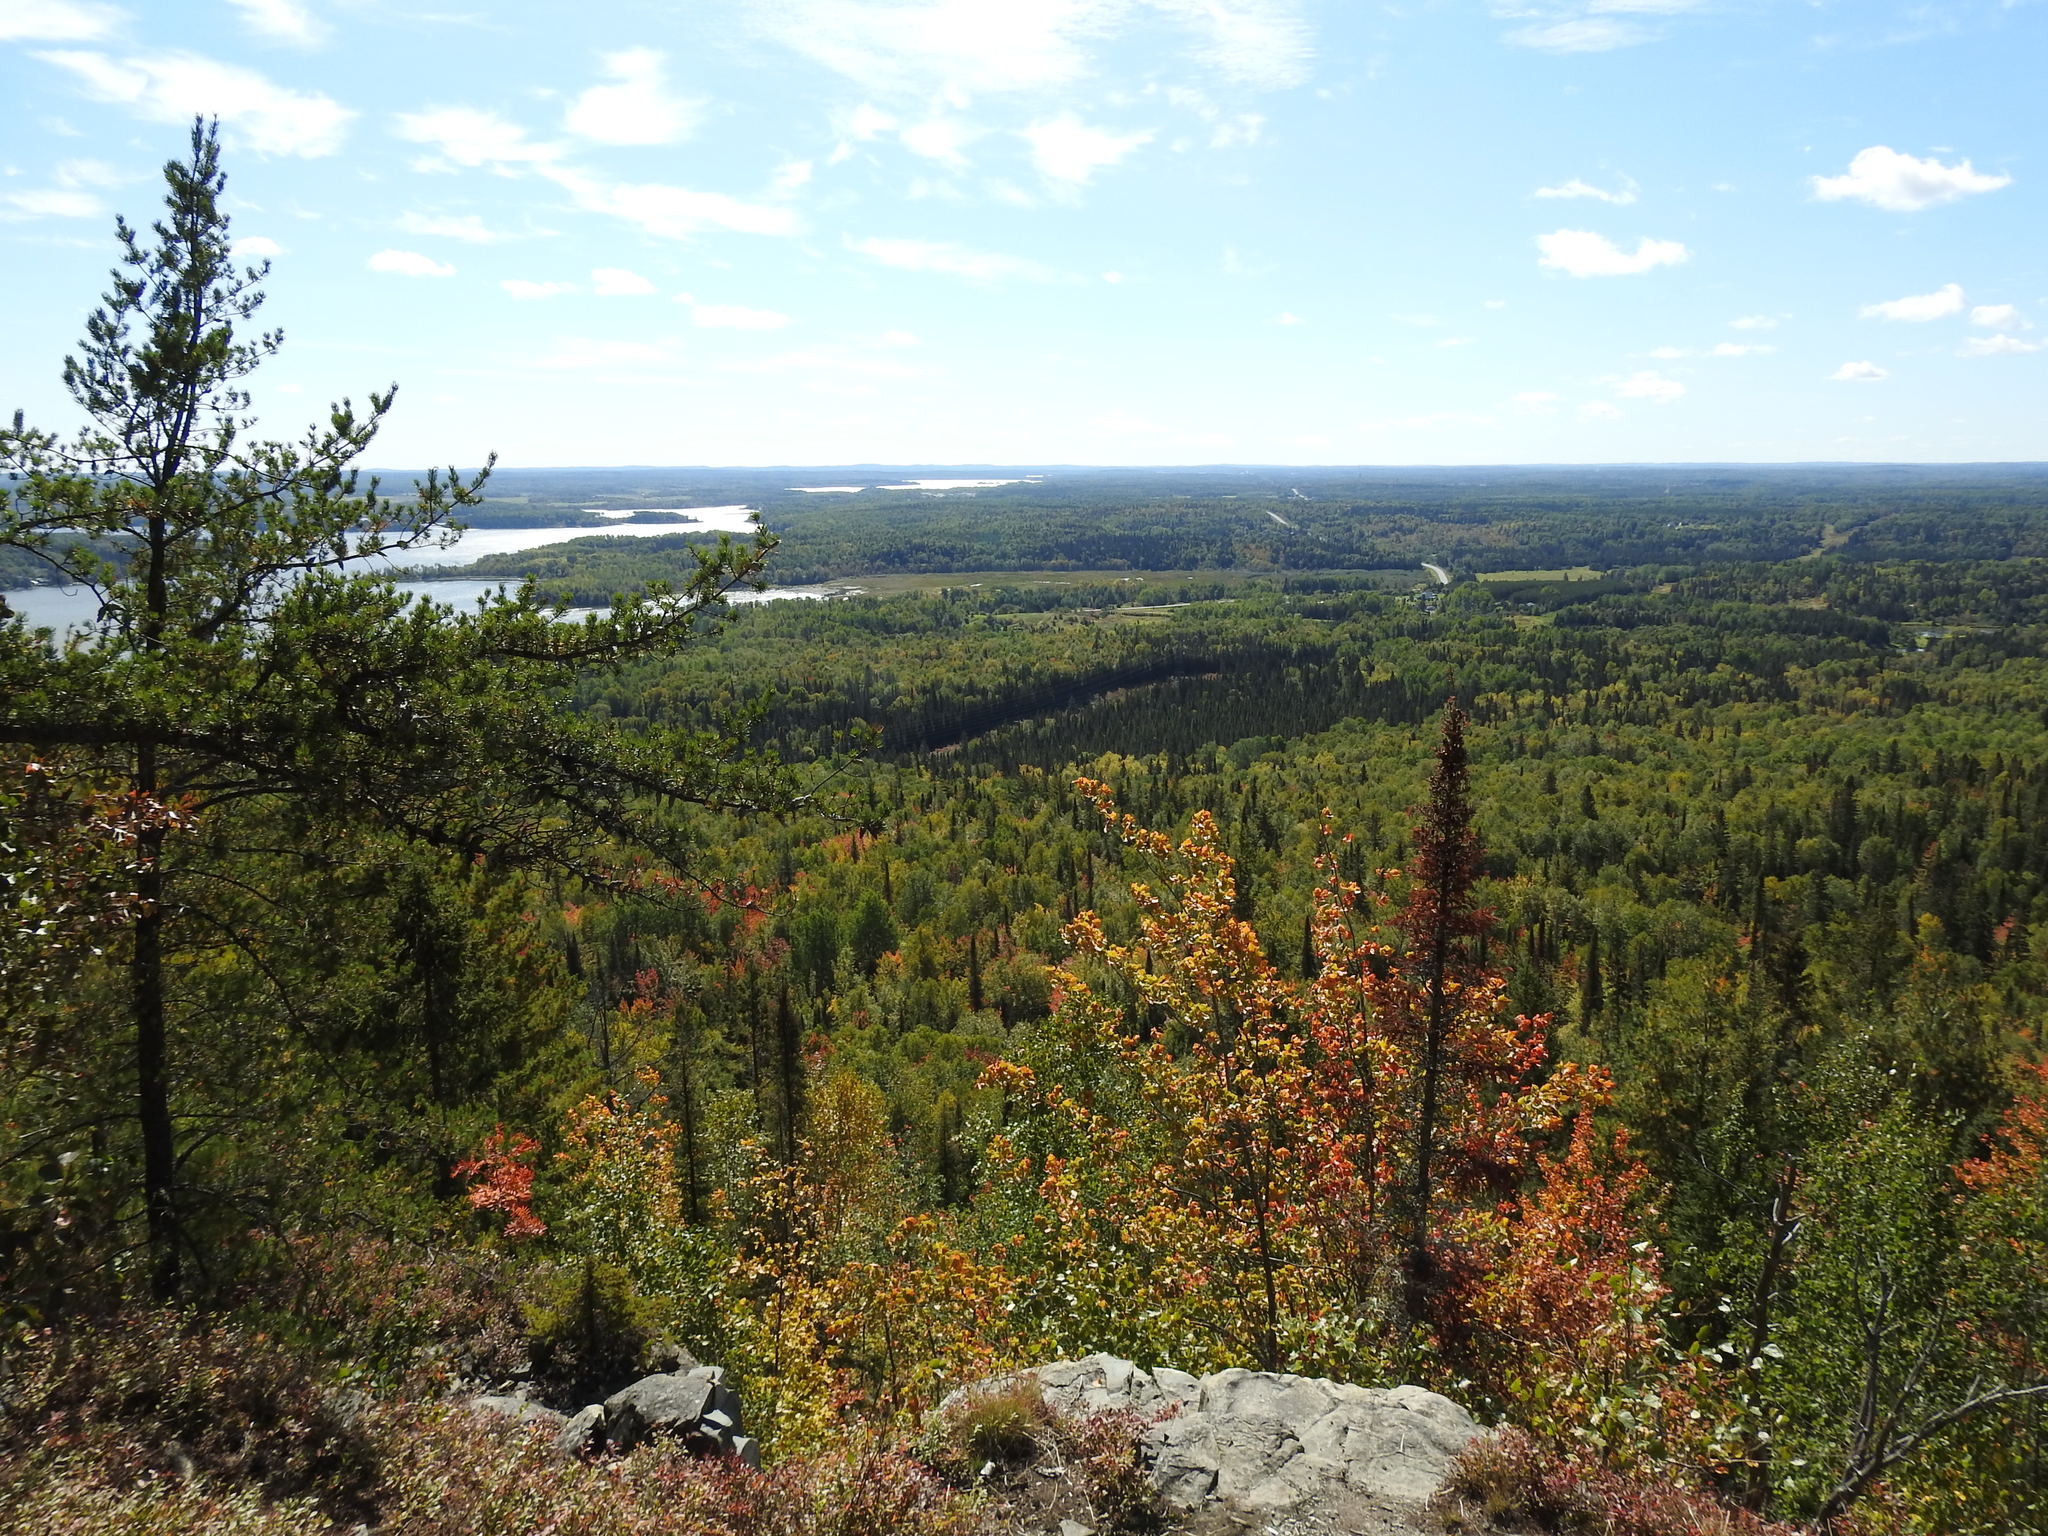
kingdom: Plantae
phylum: Tracheophyta
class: Pinopsida
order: Pinales
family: Pinaceae
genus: Pinus
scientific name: Pinus banksiana
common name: Jack pine
